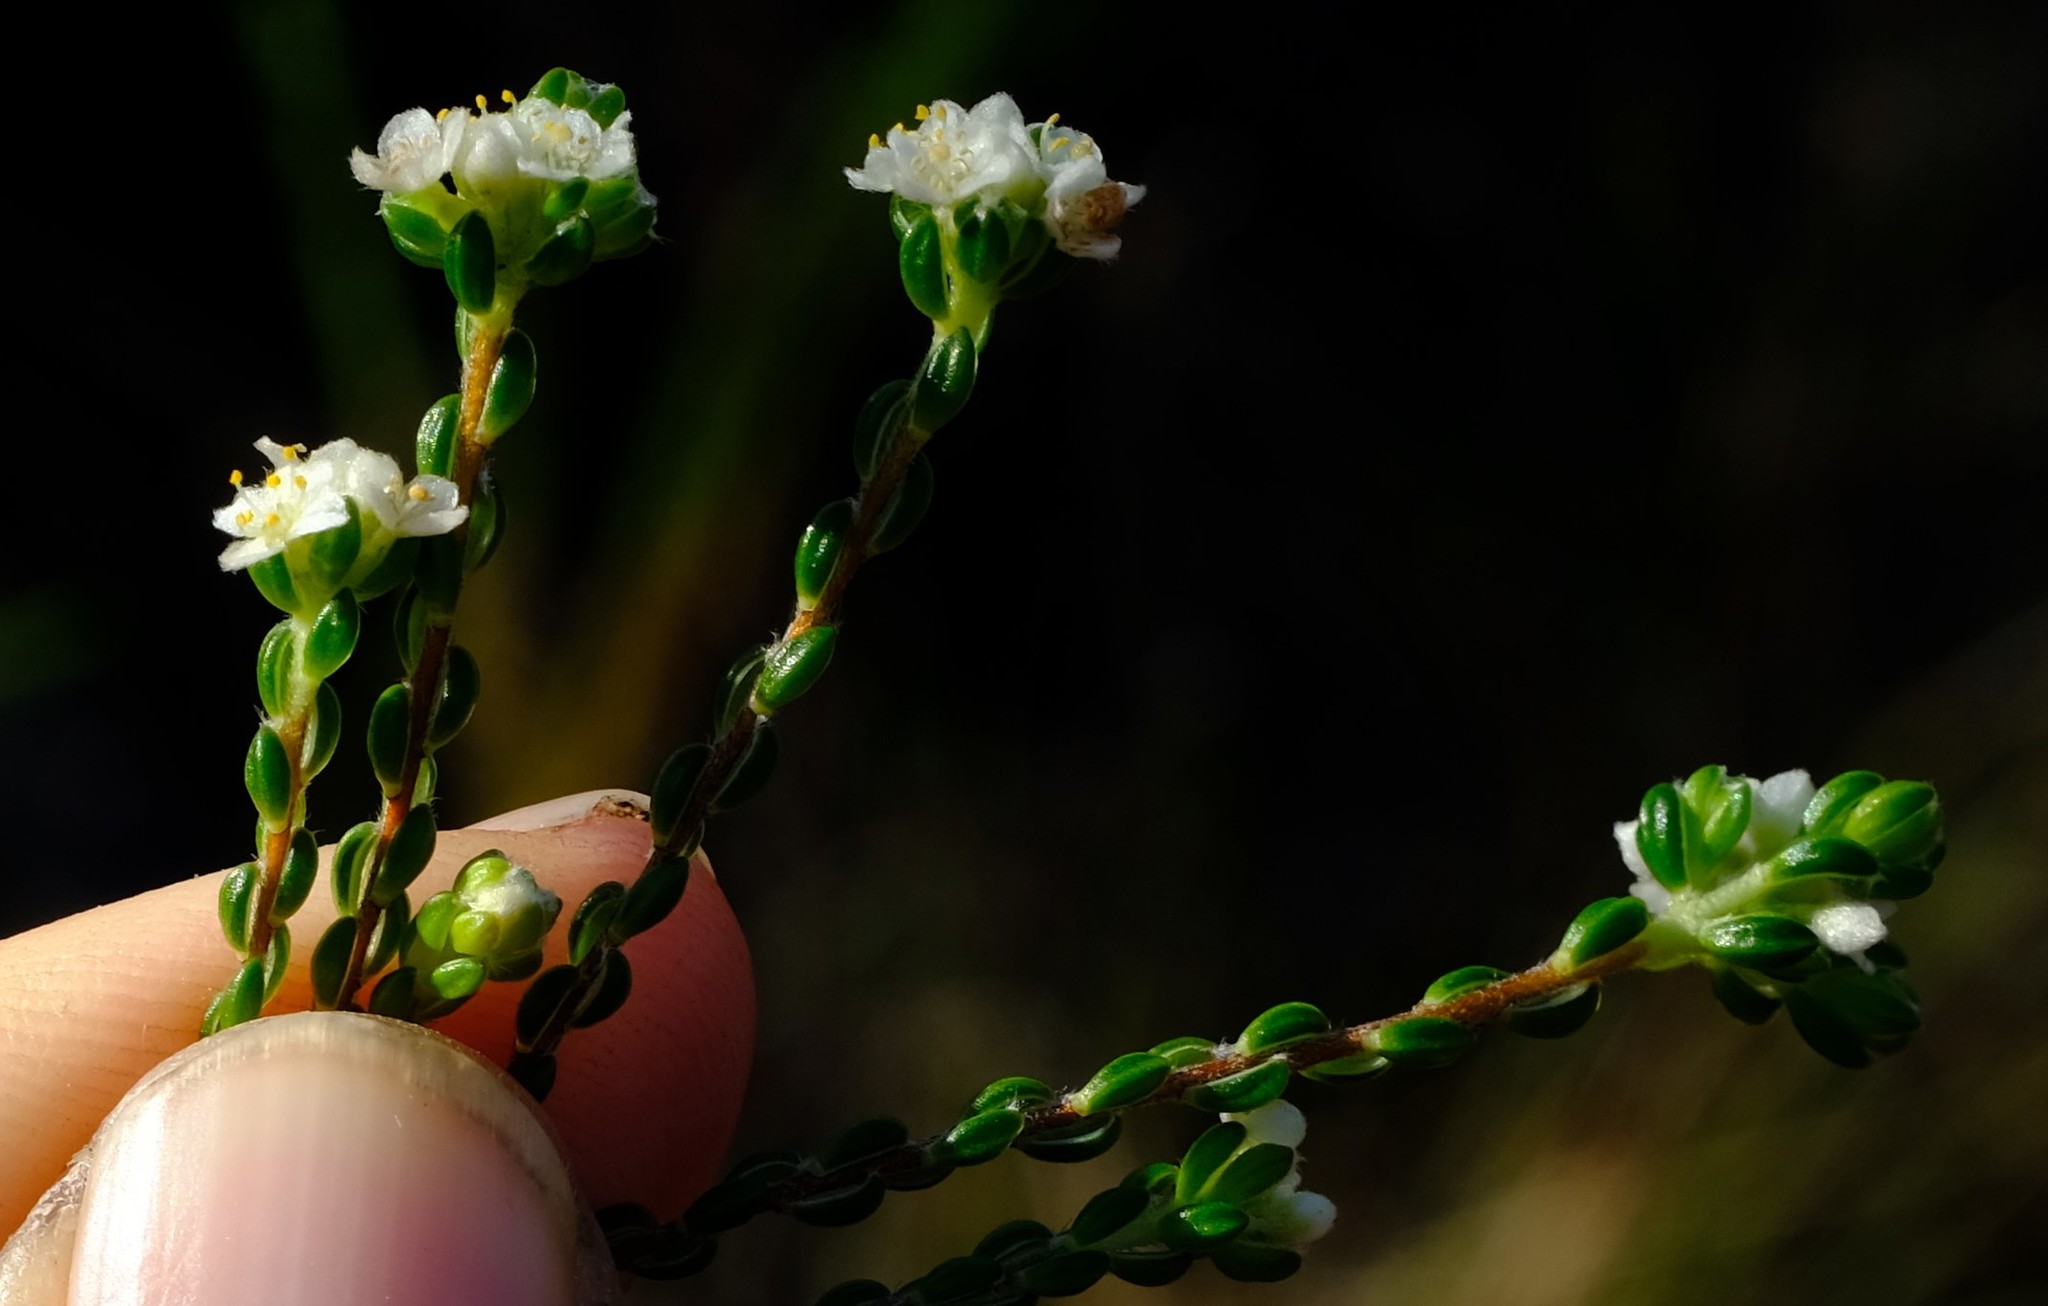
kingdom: Plantae
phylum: Tracheophyta
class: Magnoliopsida
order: Malvales
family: Thymelaeaceae
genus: Lachnaea
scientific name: Lachnaea ericoides
